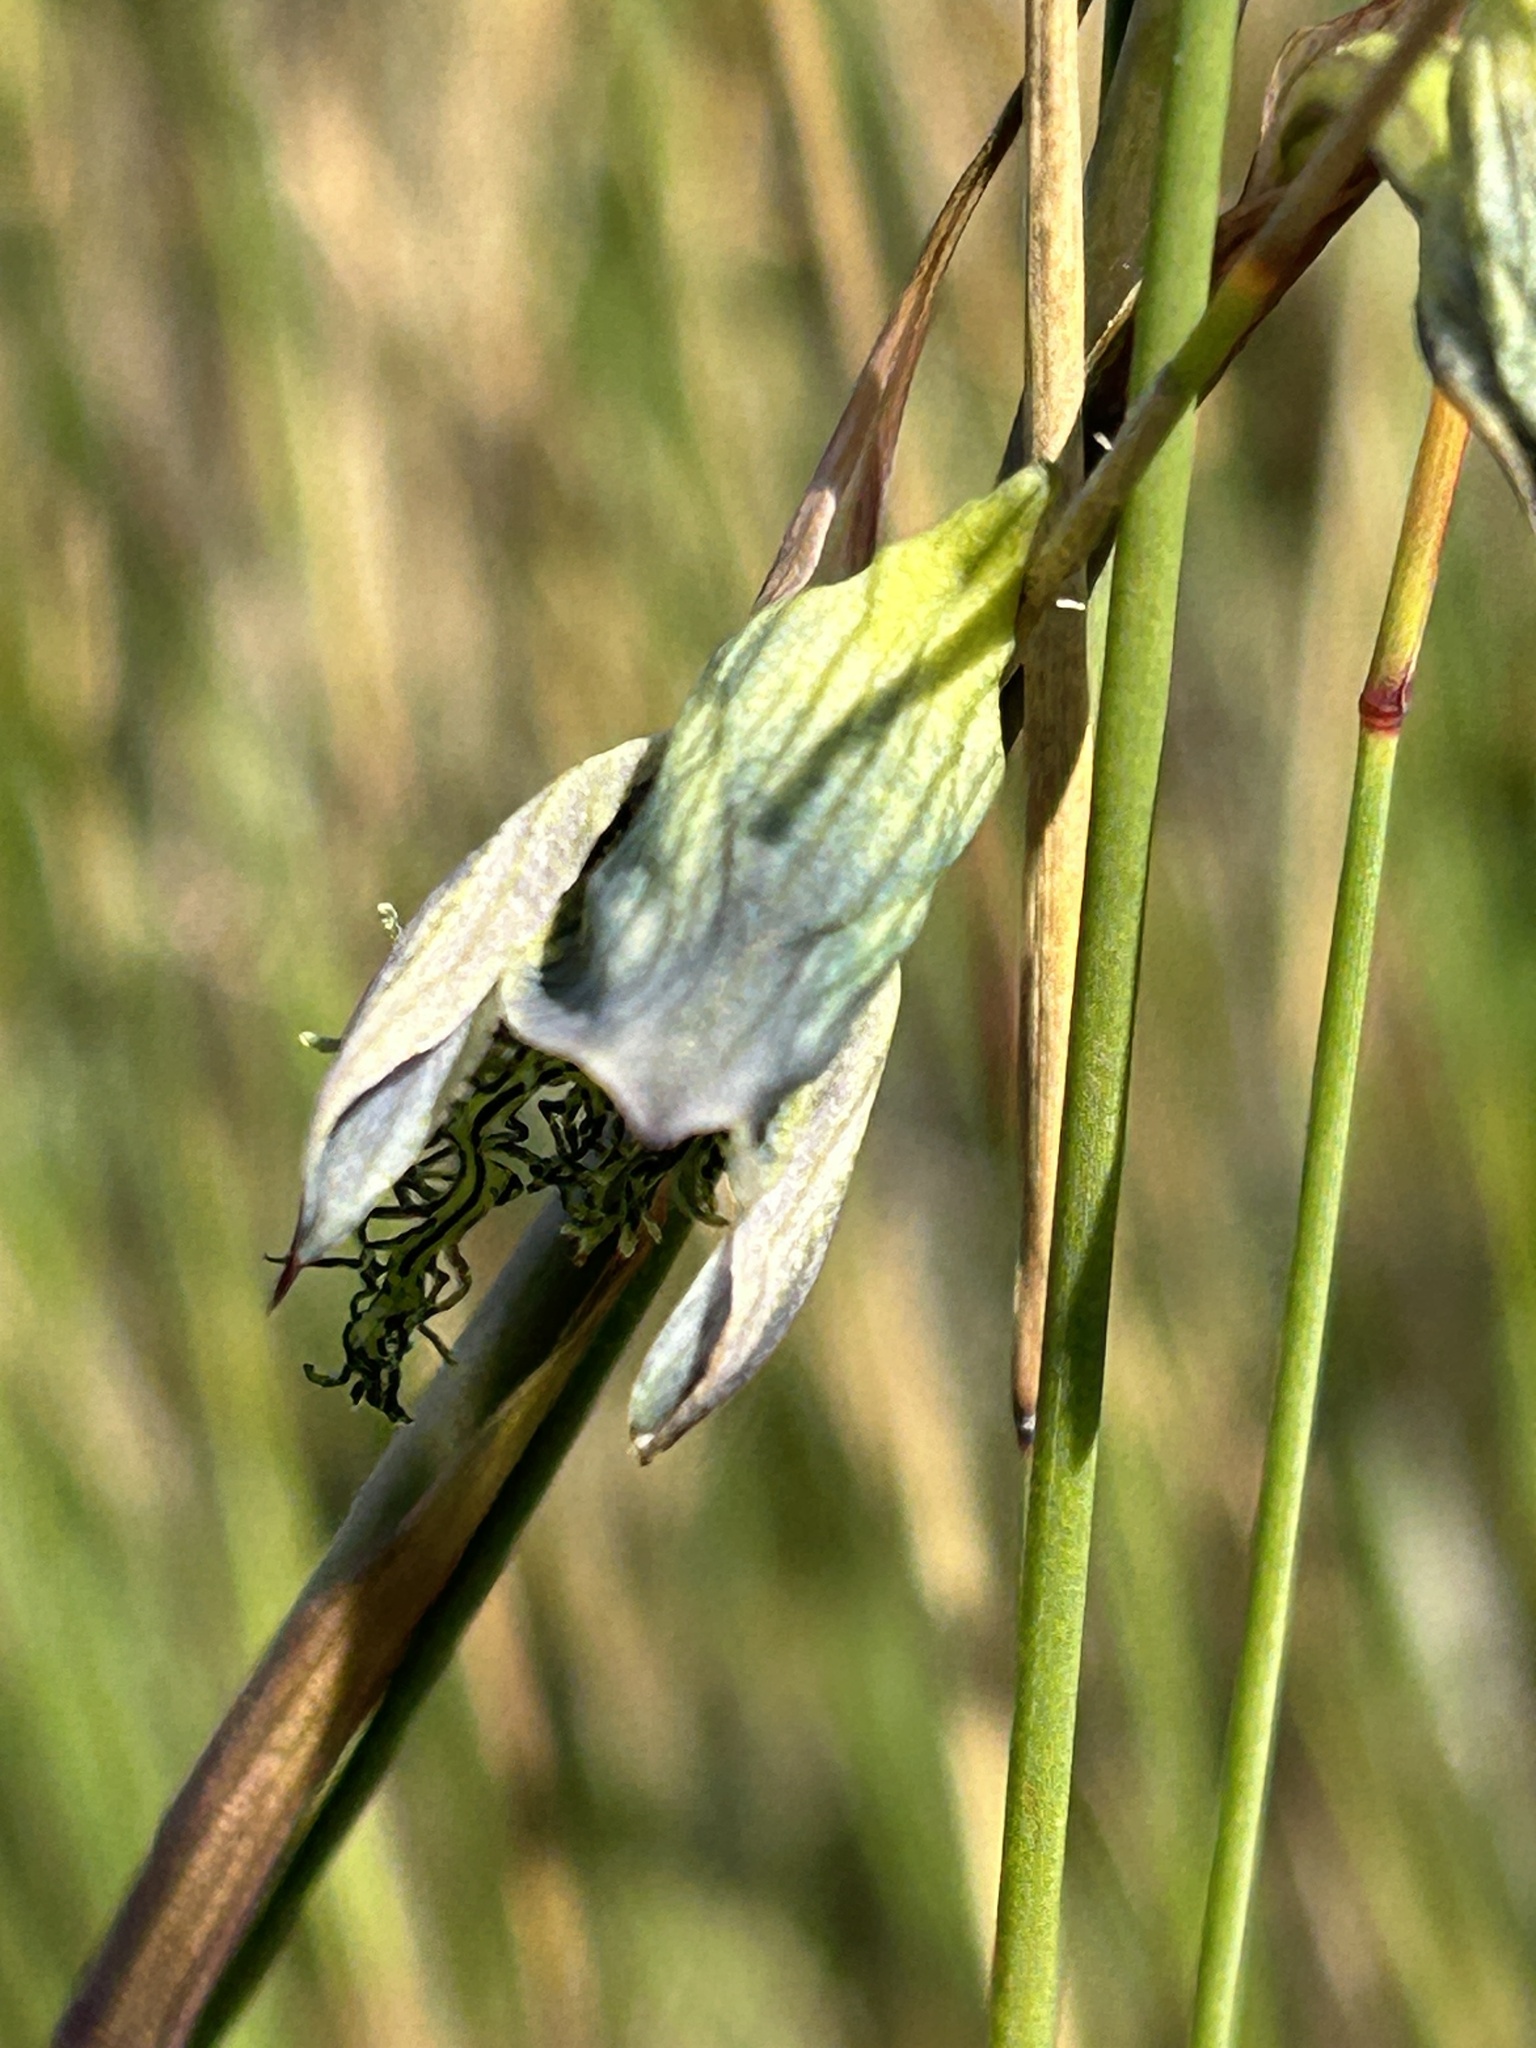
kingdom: Plantae
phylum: Tracheophyta
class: Liliopsida
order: Asparagales
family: Orchidaceae
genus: Disa
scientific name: Disa lugens
